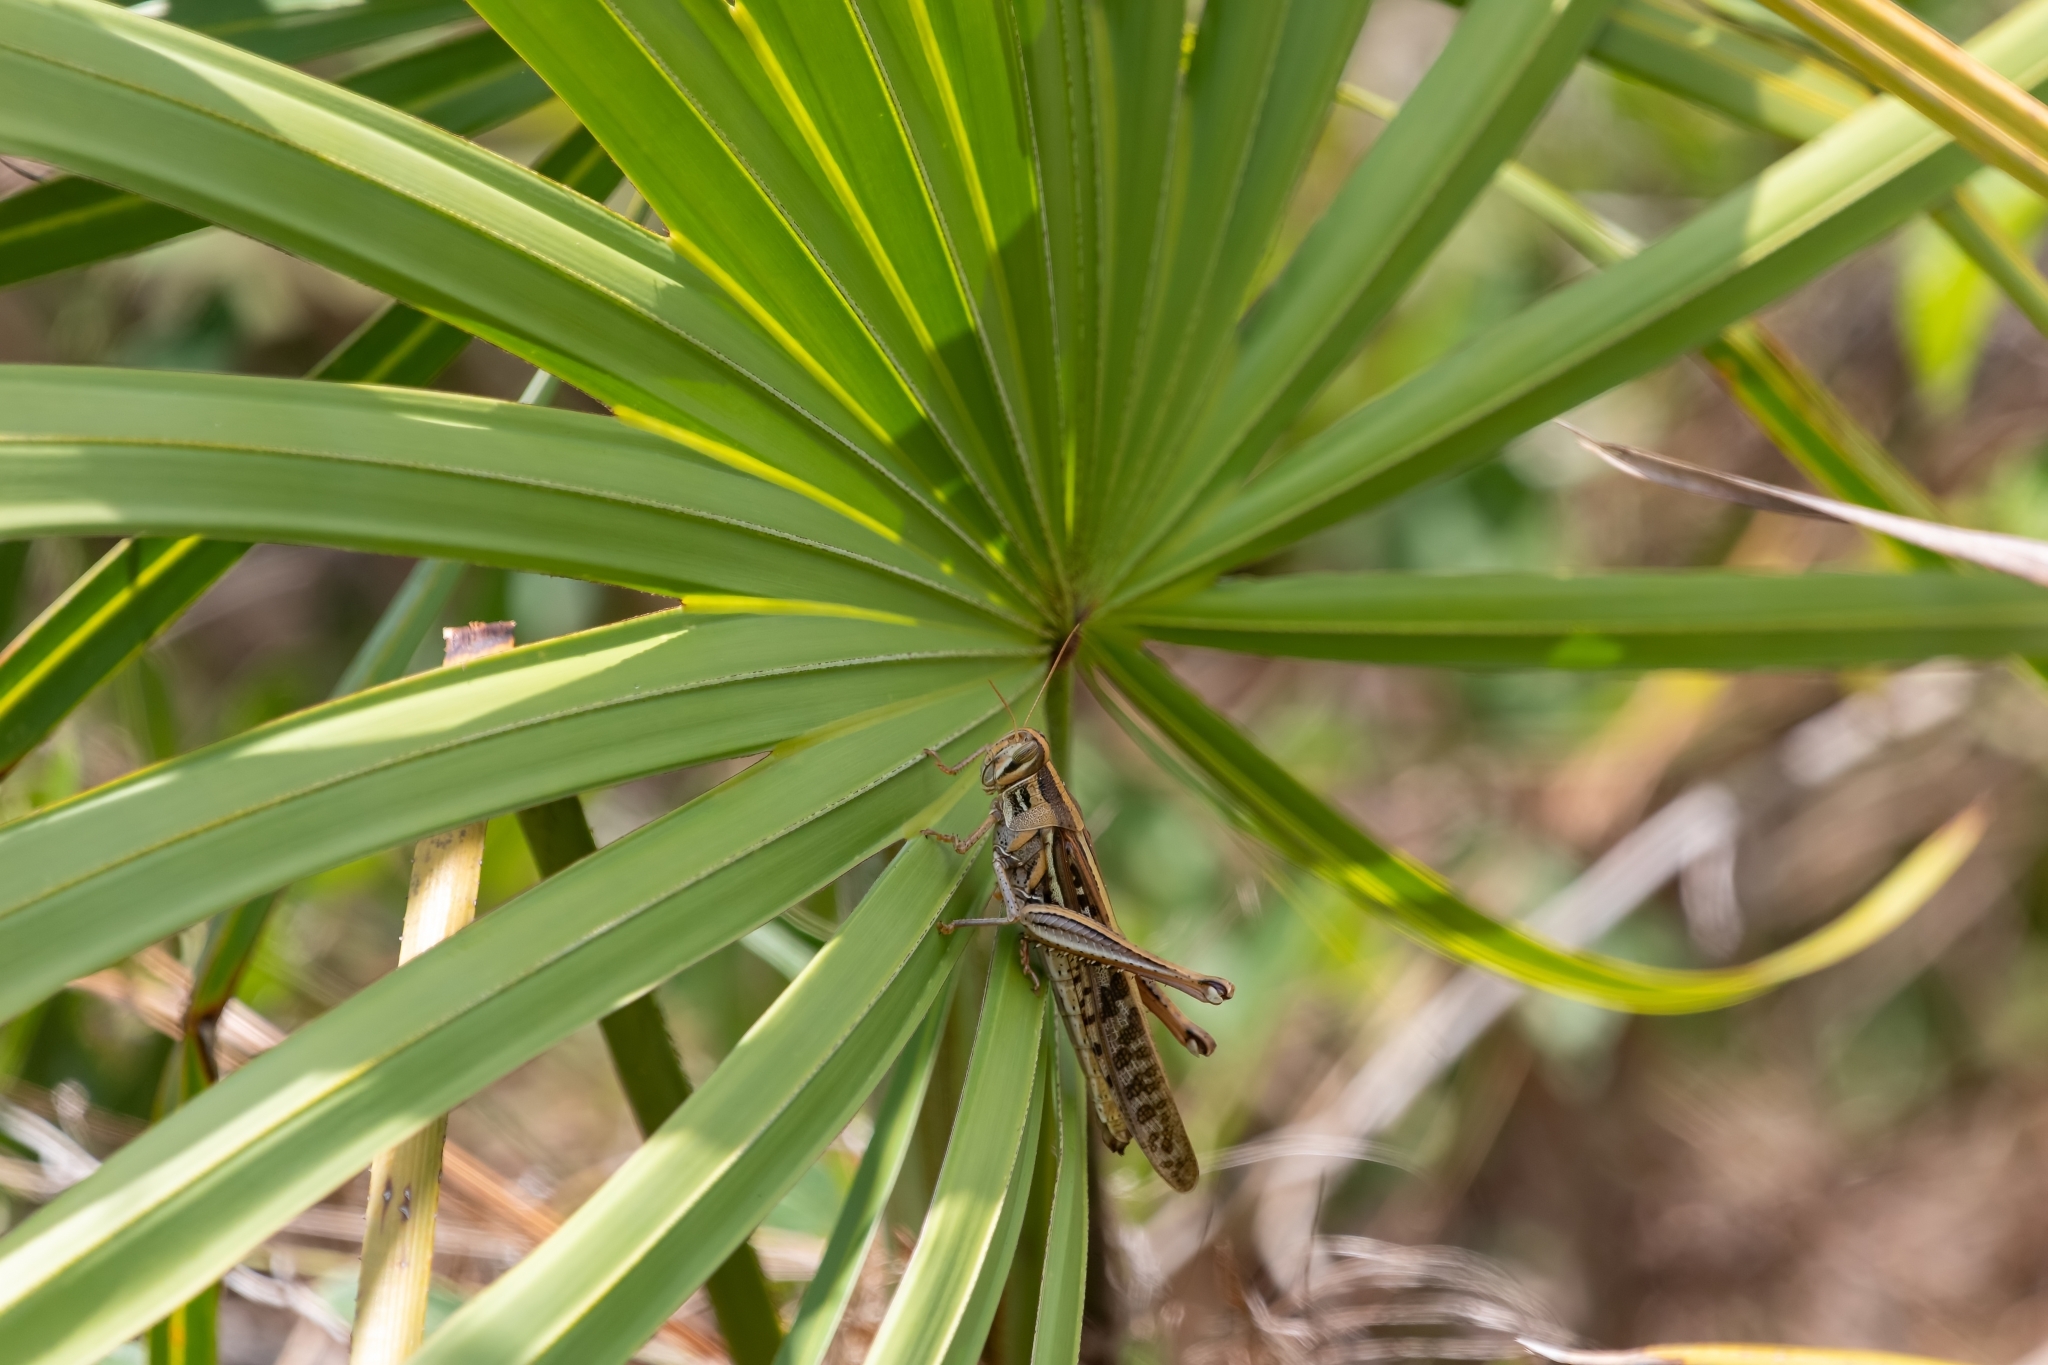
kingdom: Animalia
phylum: Arthropoda
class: Insecta
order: Orthoptera
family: Acrididae
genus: Schistocerca
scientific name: Schistocerca americana
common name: American bird locust
